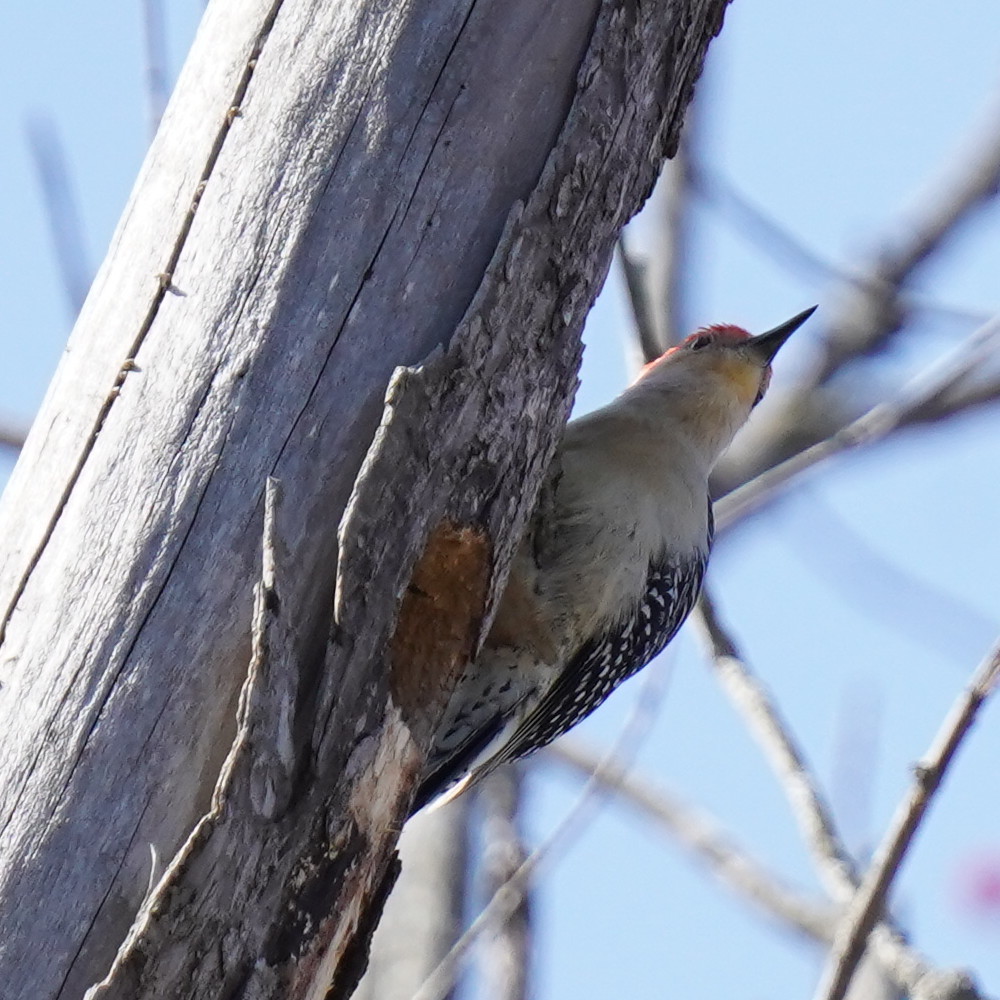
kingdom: Animalia
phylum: Chordata
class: Aves
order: Piciformes
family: Picidae
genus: Melanerpes
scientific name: Melanerpes carolinus
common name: Red-bellied woodpecker
